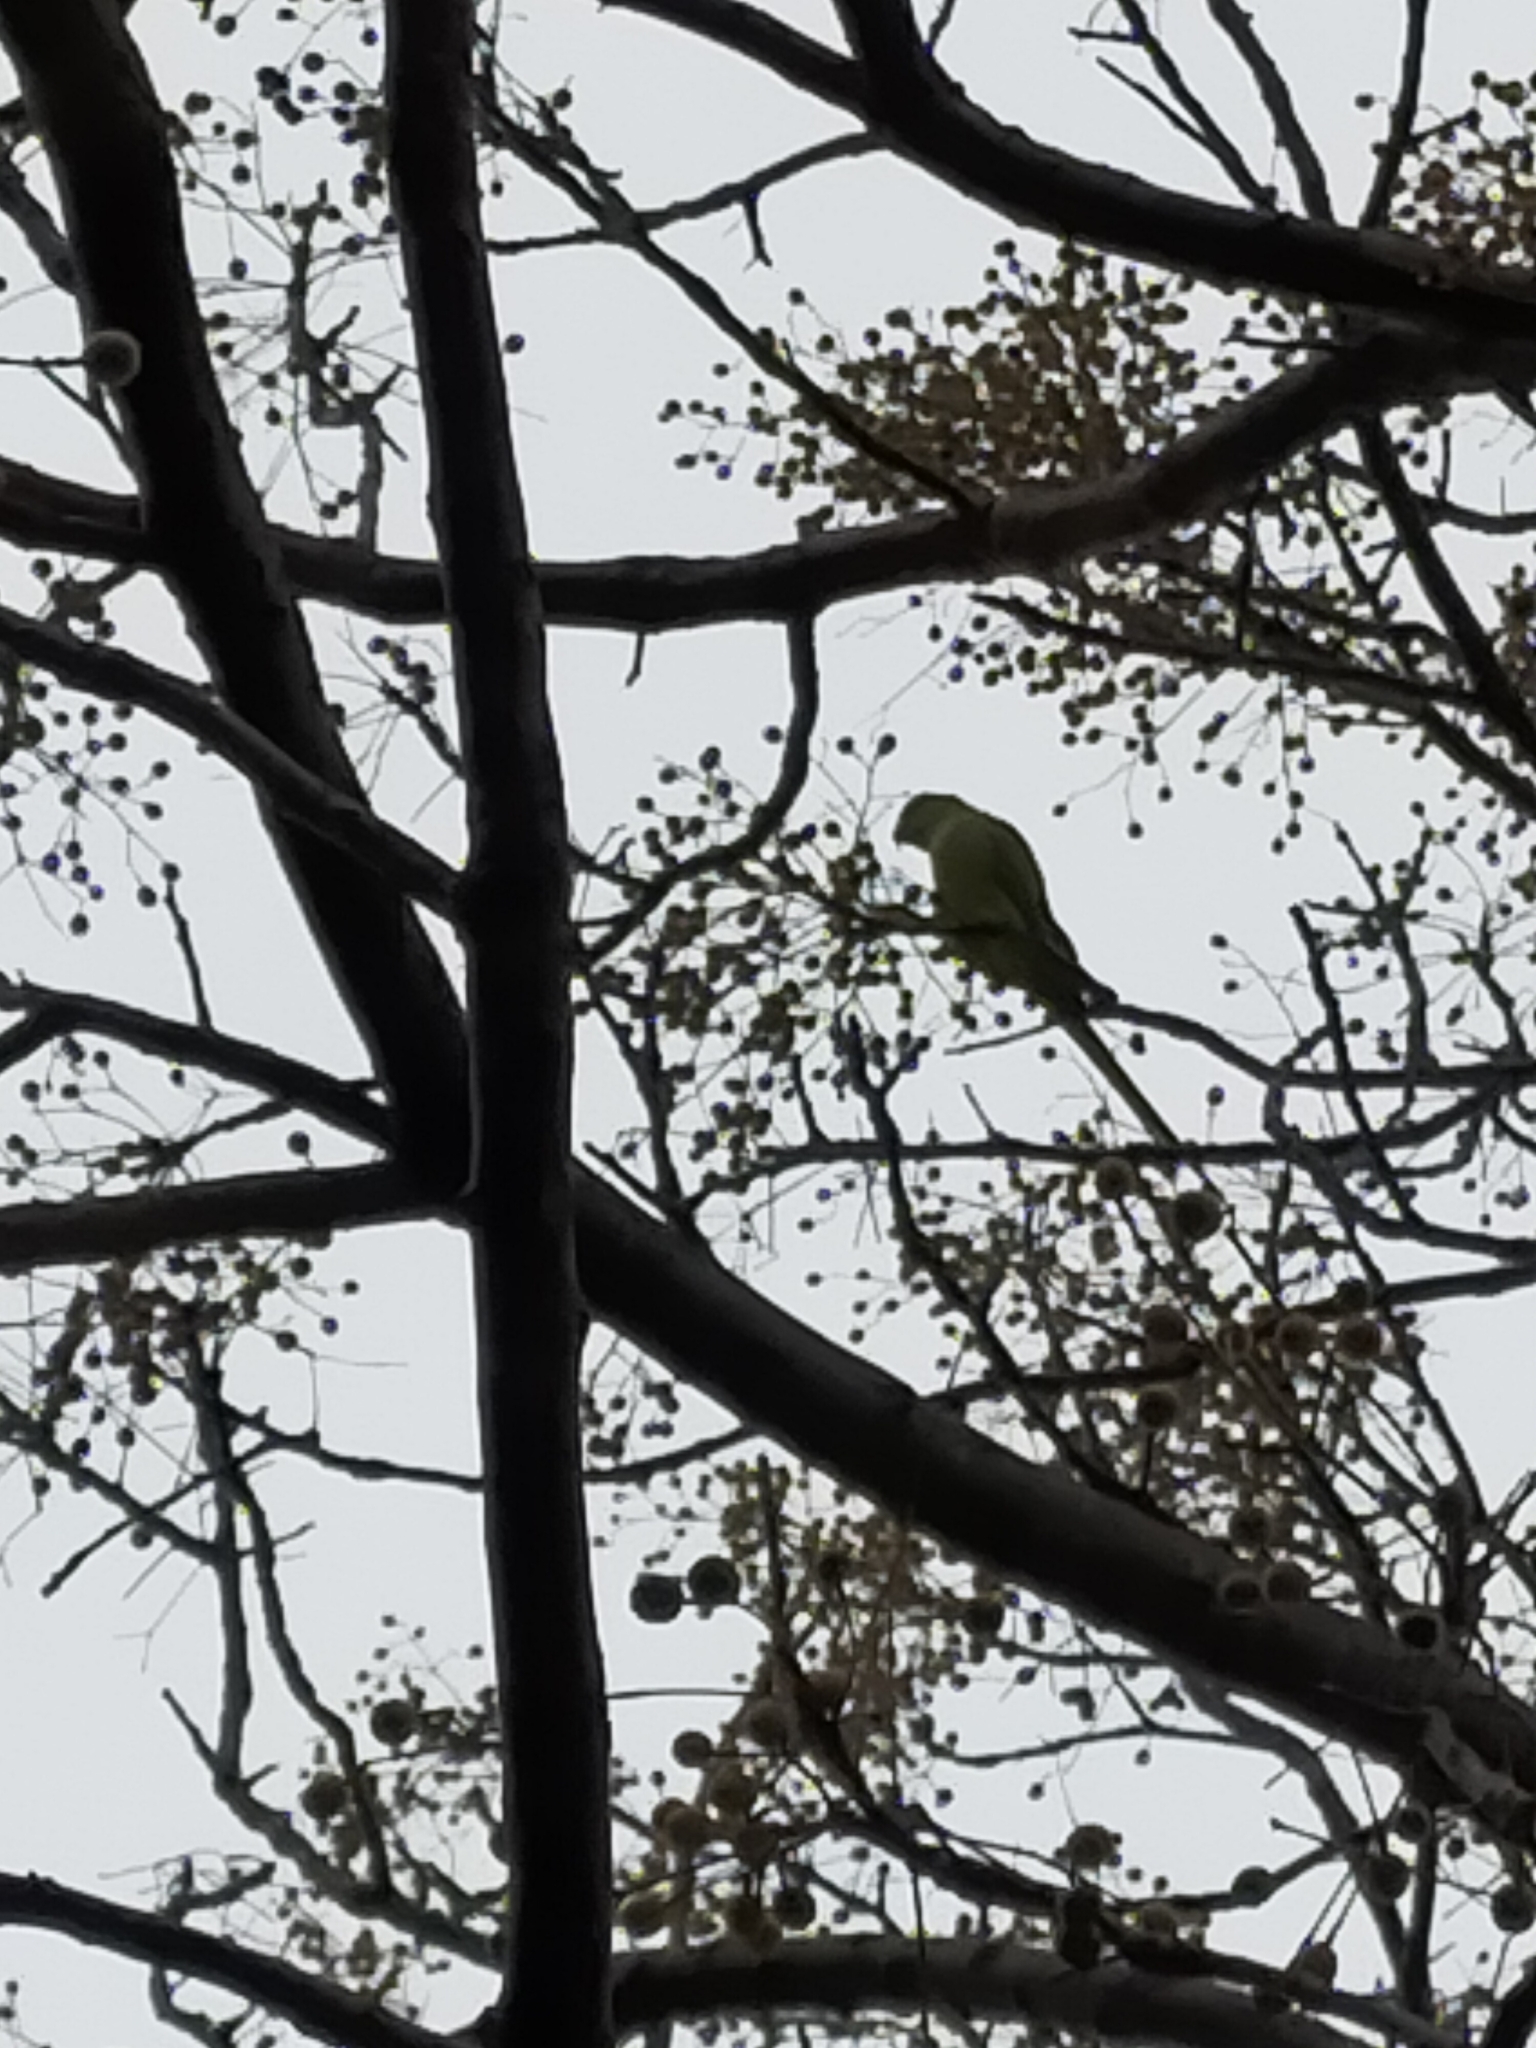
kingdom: Animalia
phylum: Chordata
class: Aves
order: Psittaciformes
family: Psittacidae
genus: Psittacula
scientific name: Psittacula krameri
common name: Rose-ringed parakeet
